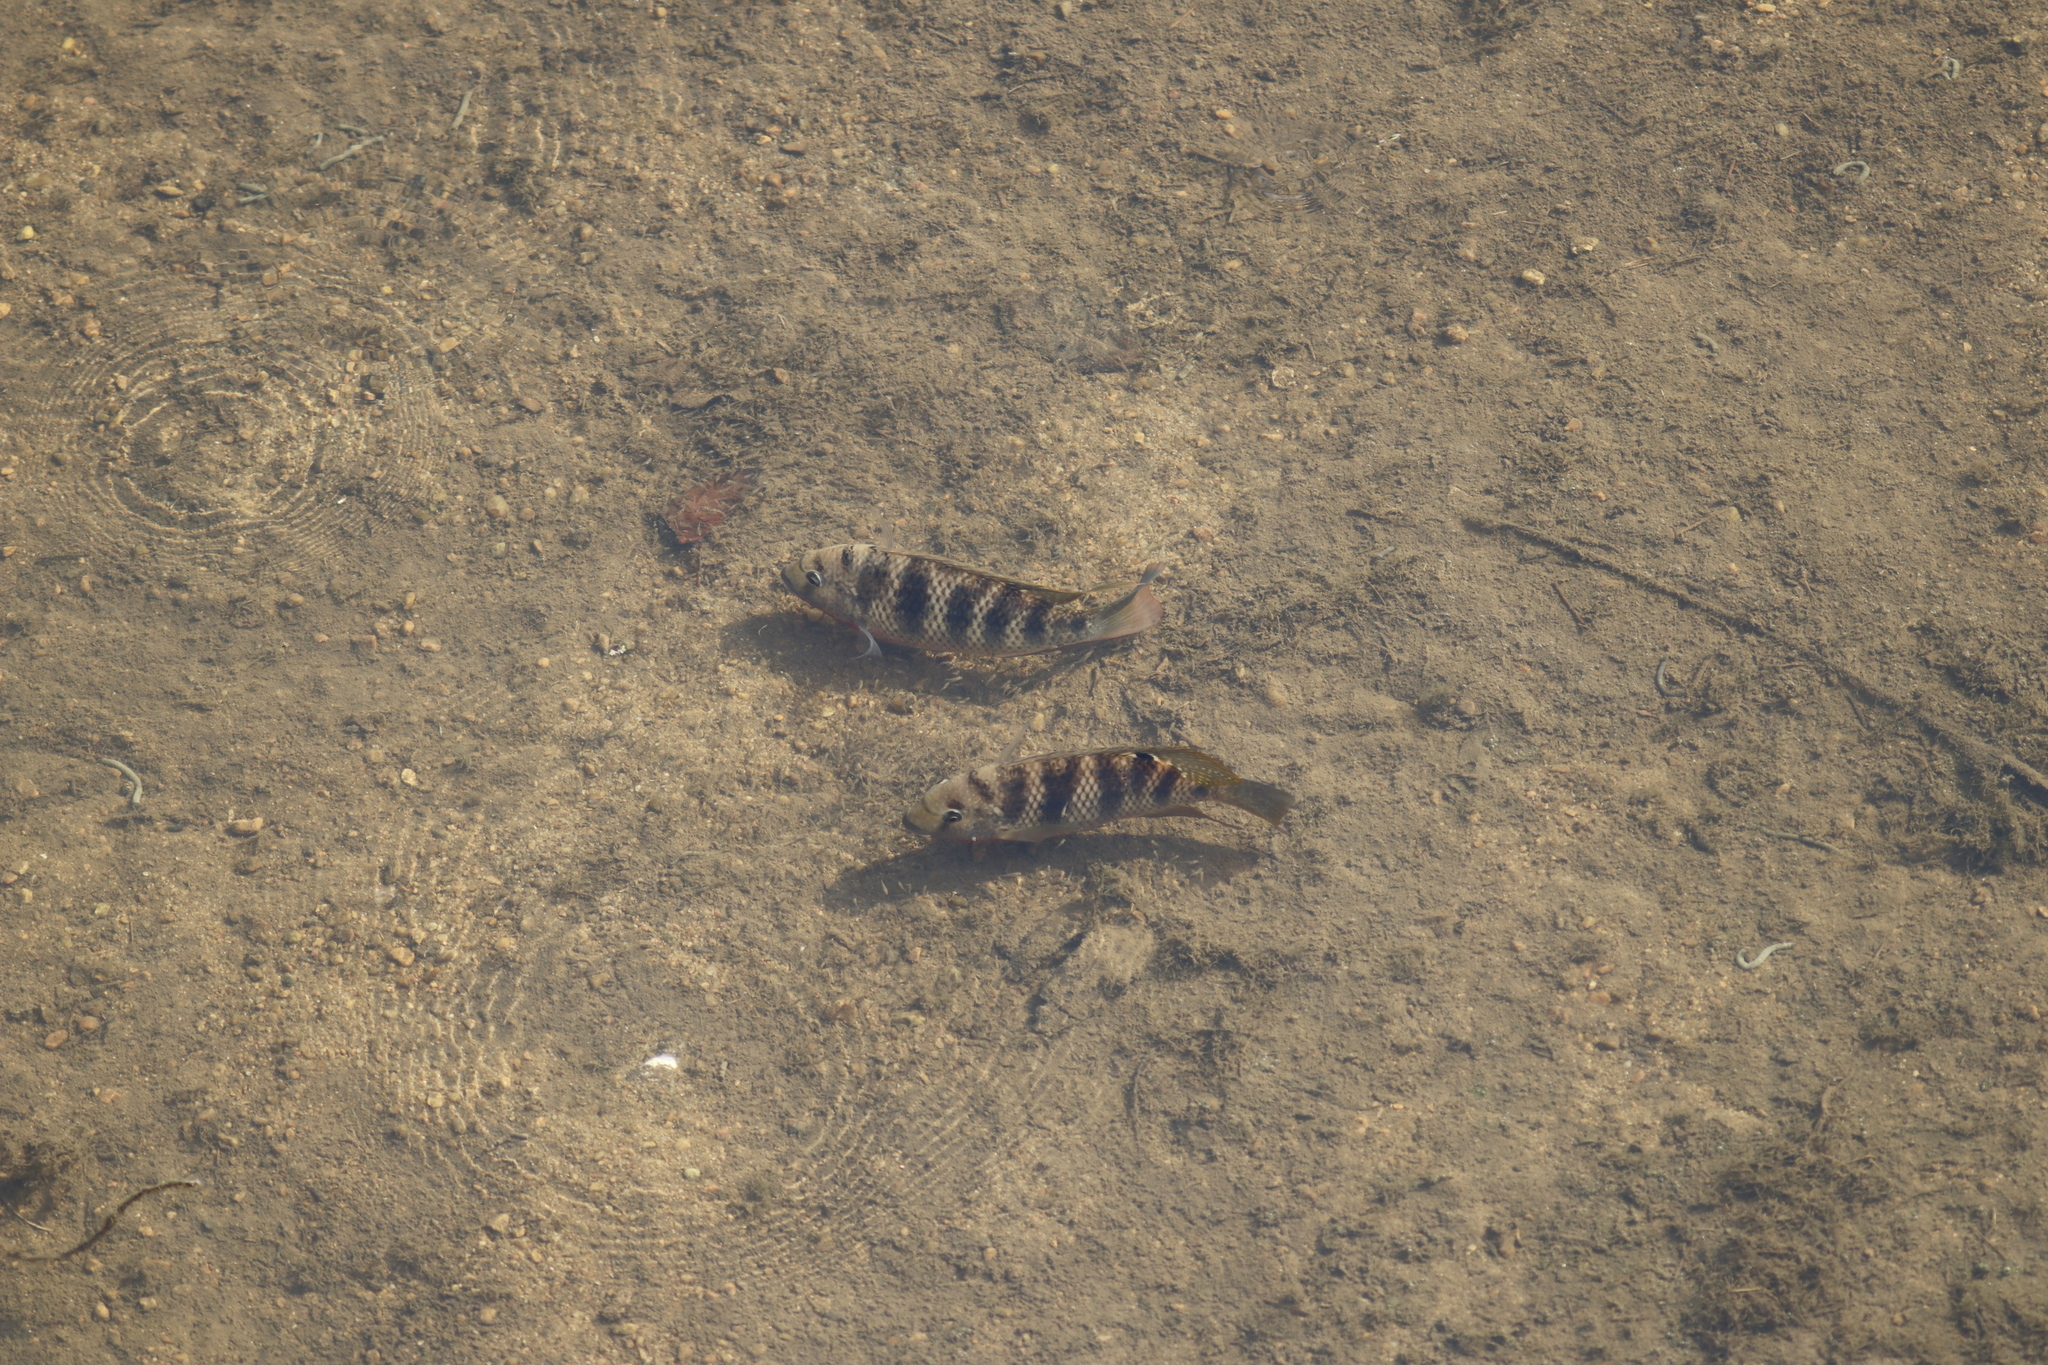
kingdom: Animalia
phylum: Chordata
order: Perciformes
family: Cichlidae
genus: Coptodon
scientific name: Coptodon rendalli
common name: Redbreast tilapia
